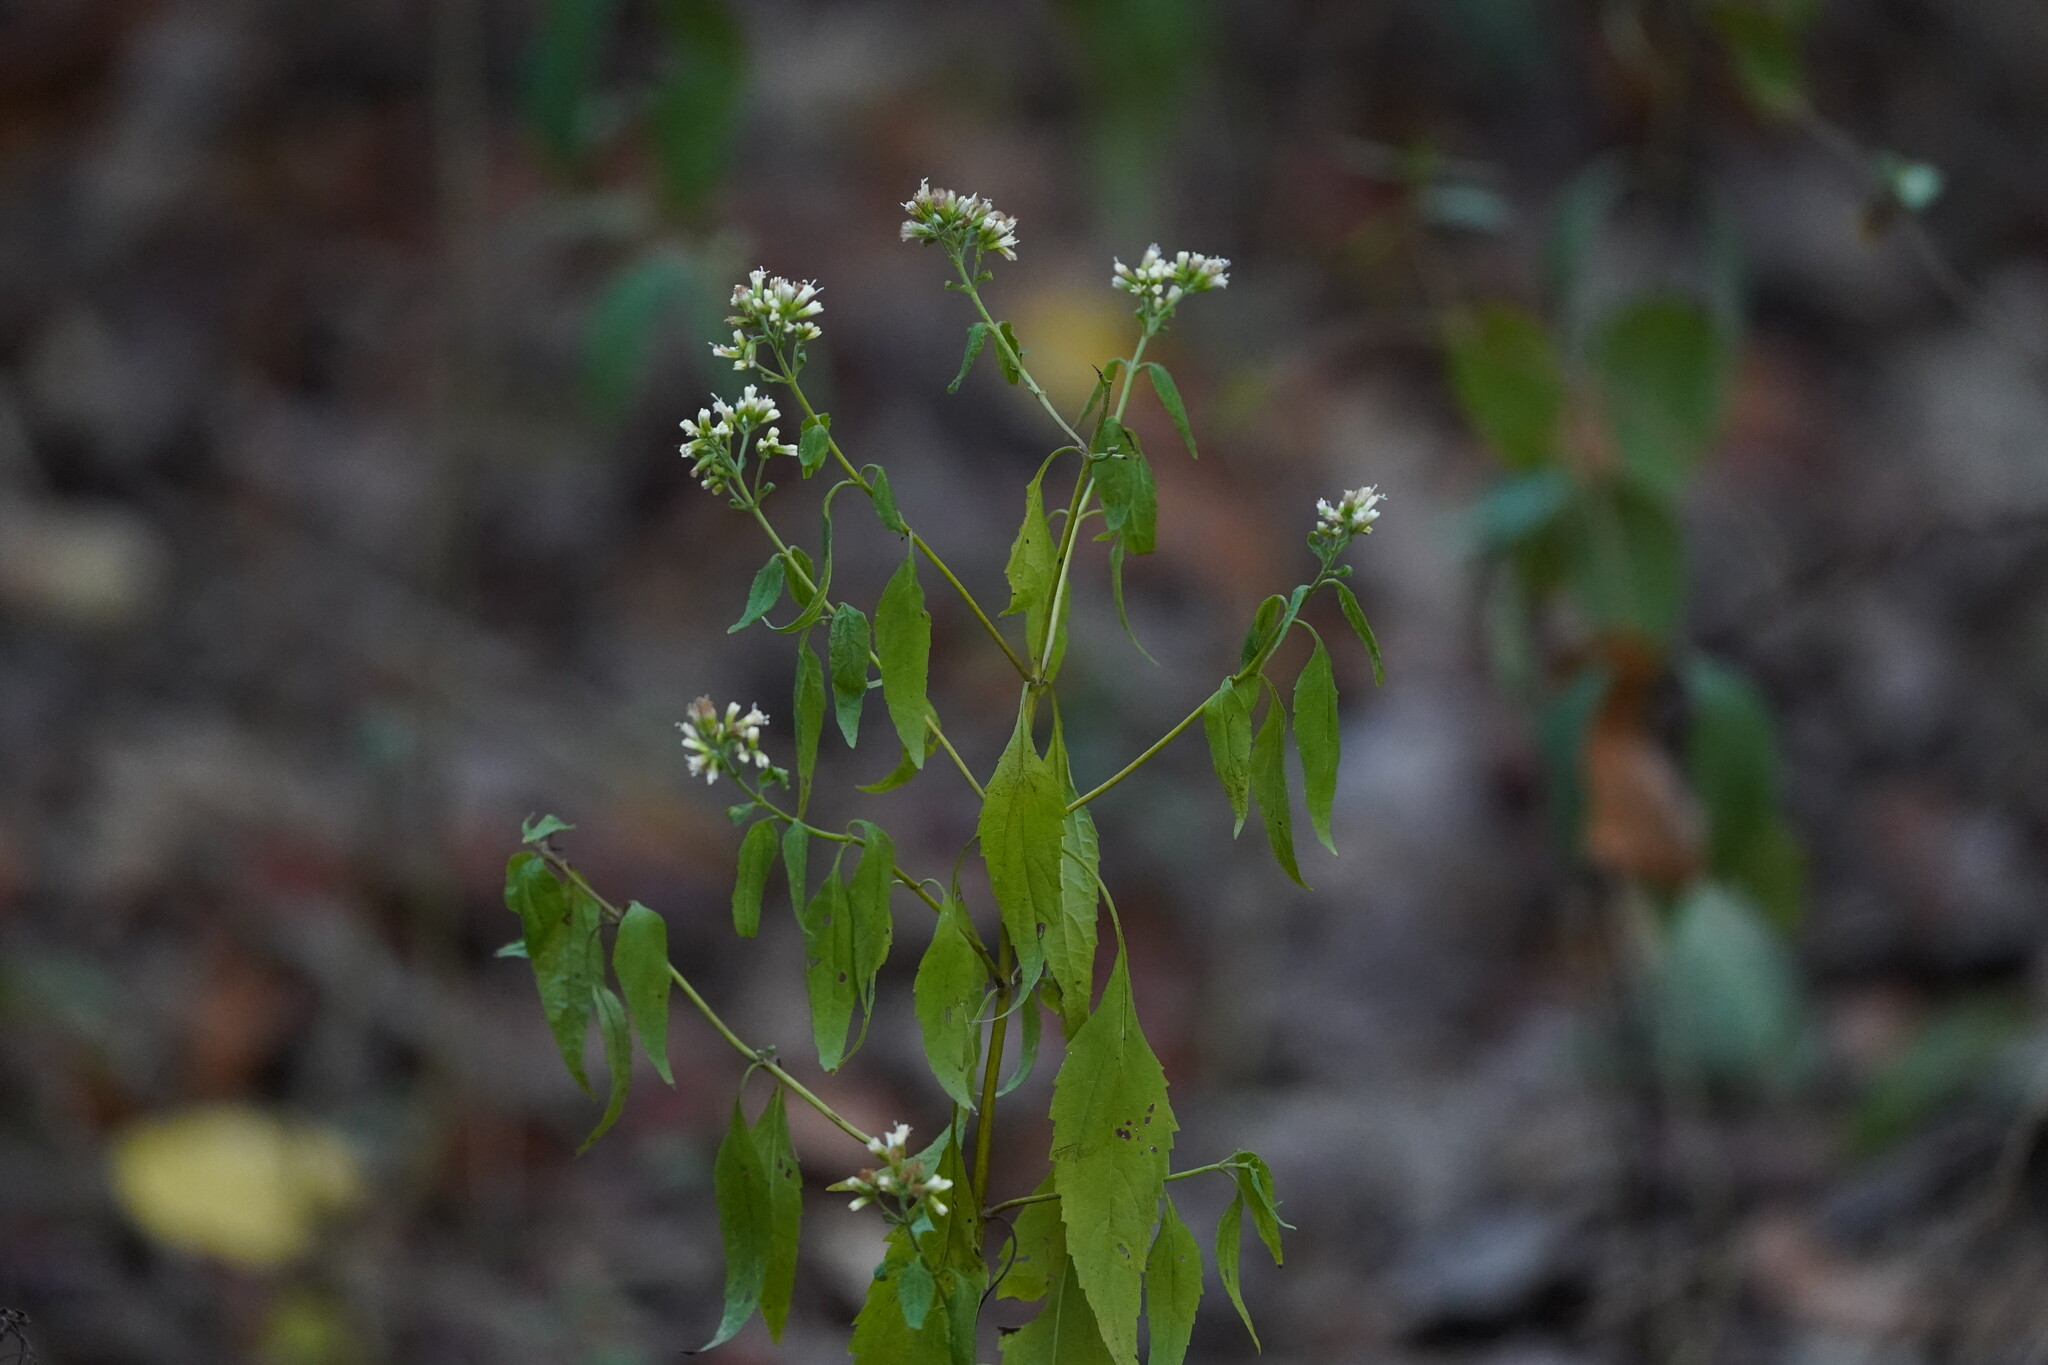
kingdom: Plantae
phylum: Tracheophyta
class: Magnoliopsida
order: Asterales
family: Asteraceae
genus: Ageratina
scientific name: Ageratina altissima
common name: White snakeroot
